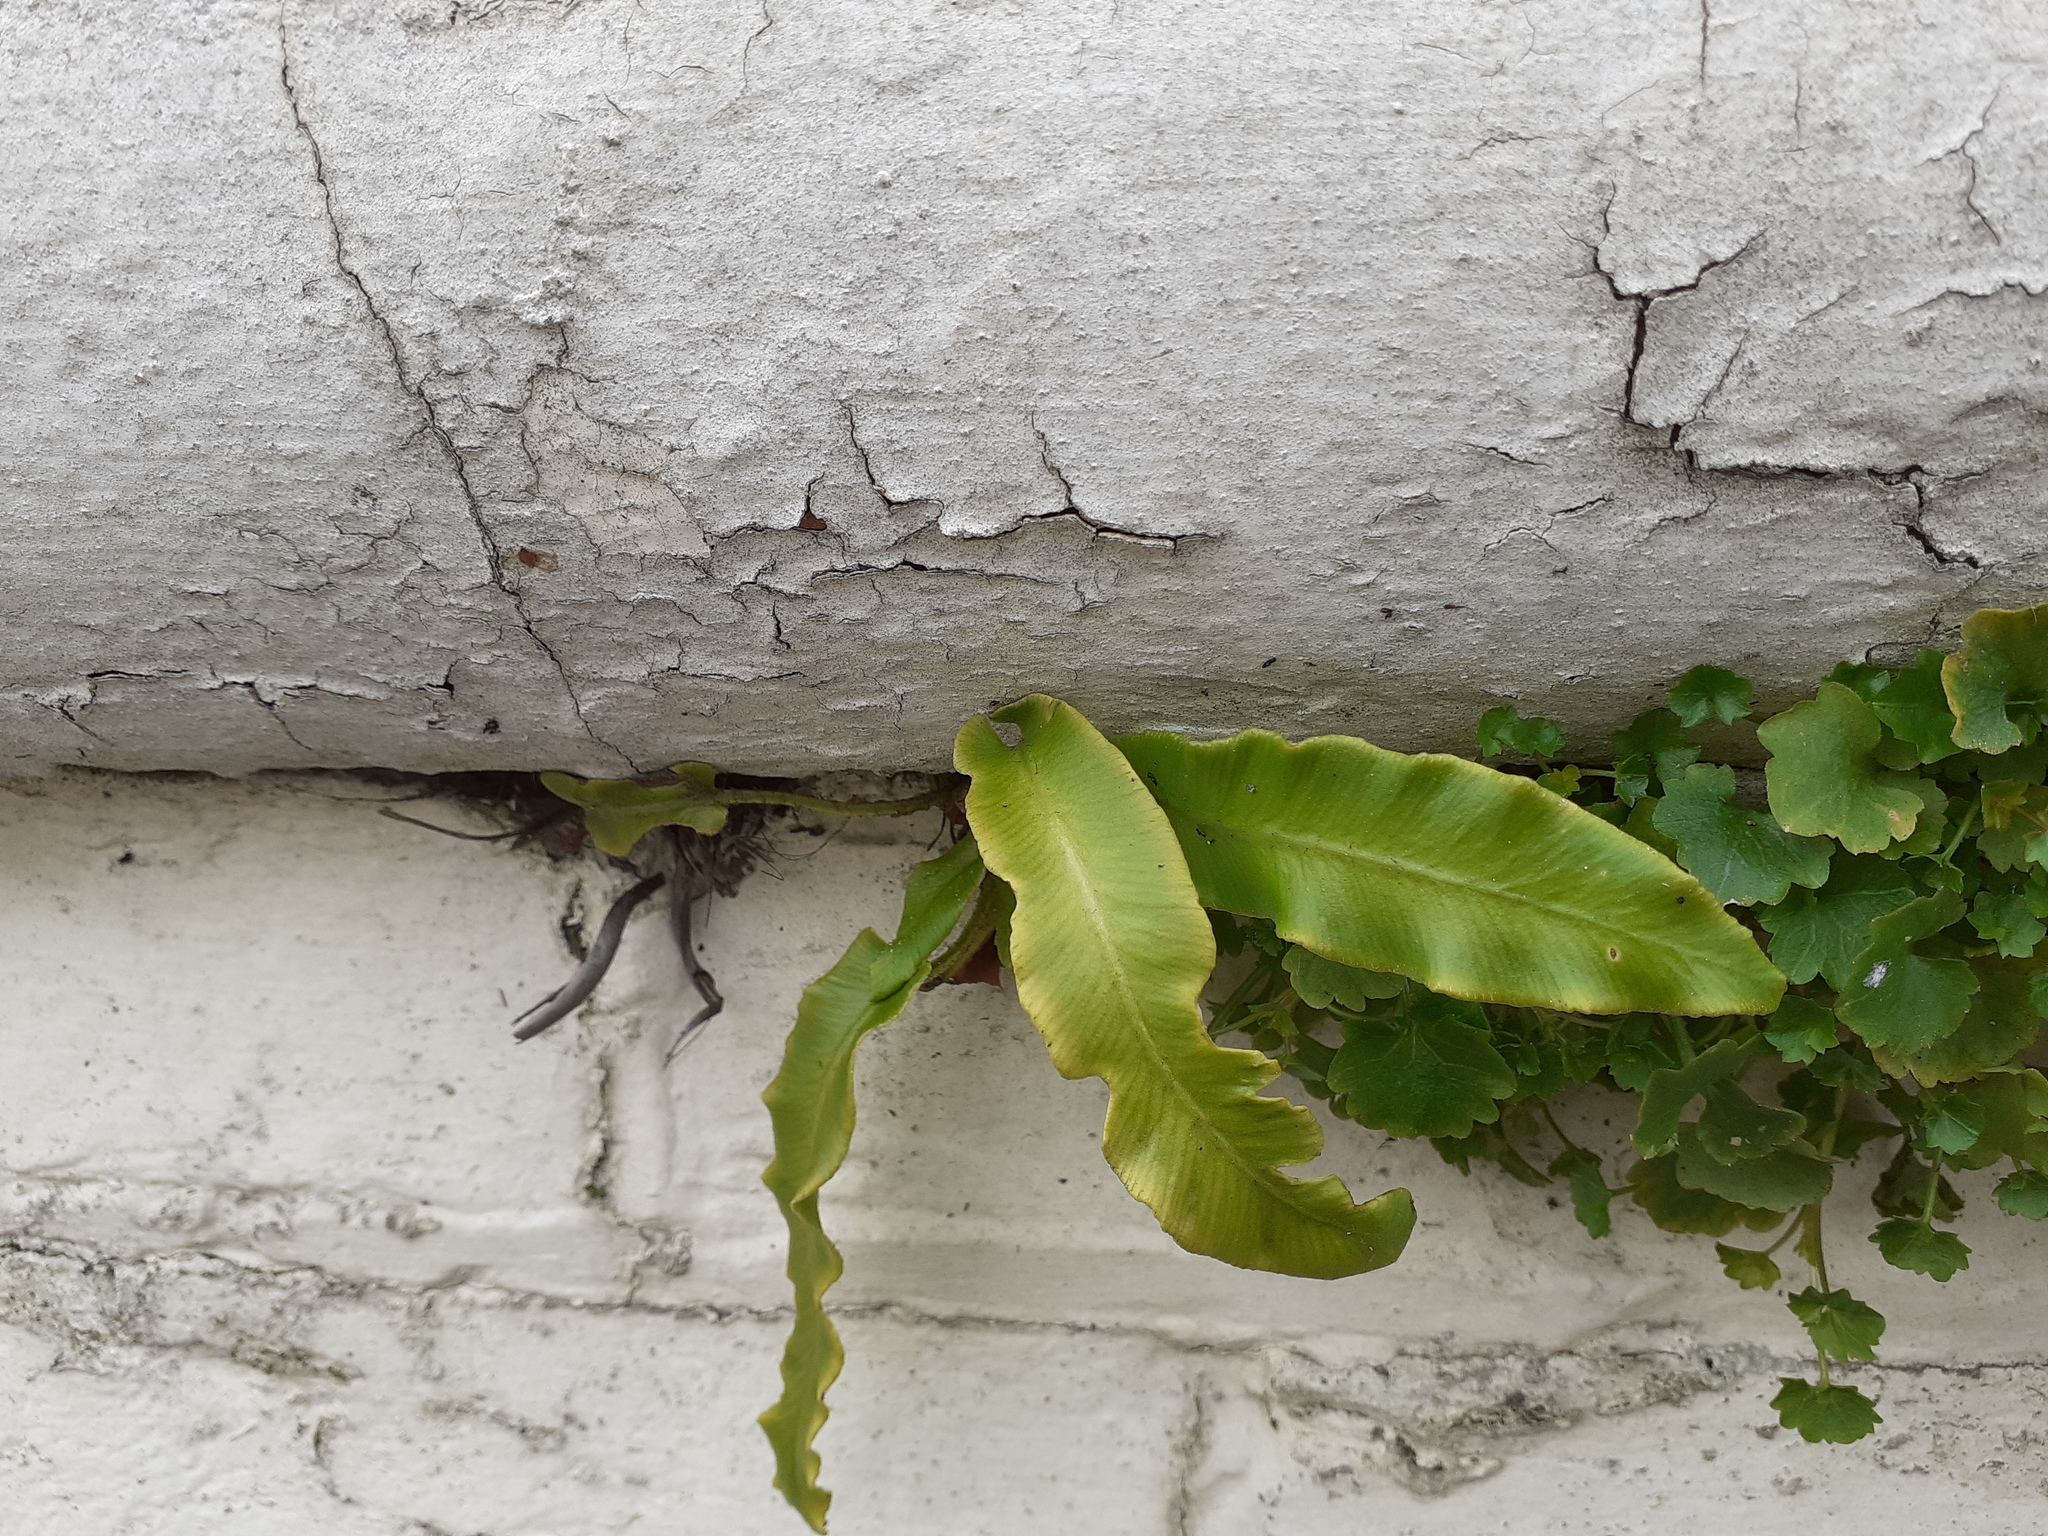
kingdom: Plantae
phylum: Tracheophyta
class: Polypodiopsida
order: Polypodiales
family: Aspleniaceae
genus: Asplenium
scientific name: Asplenium scolopendrium
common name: Hart's-tongue fern
